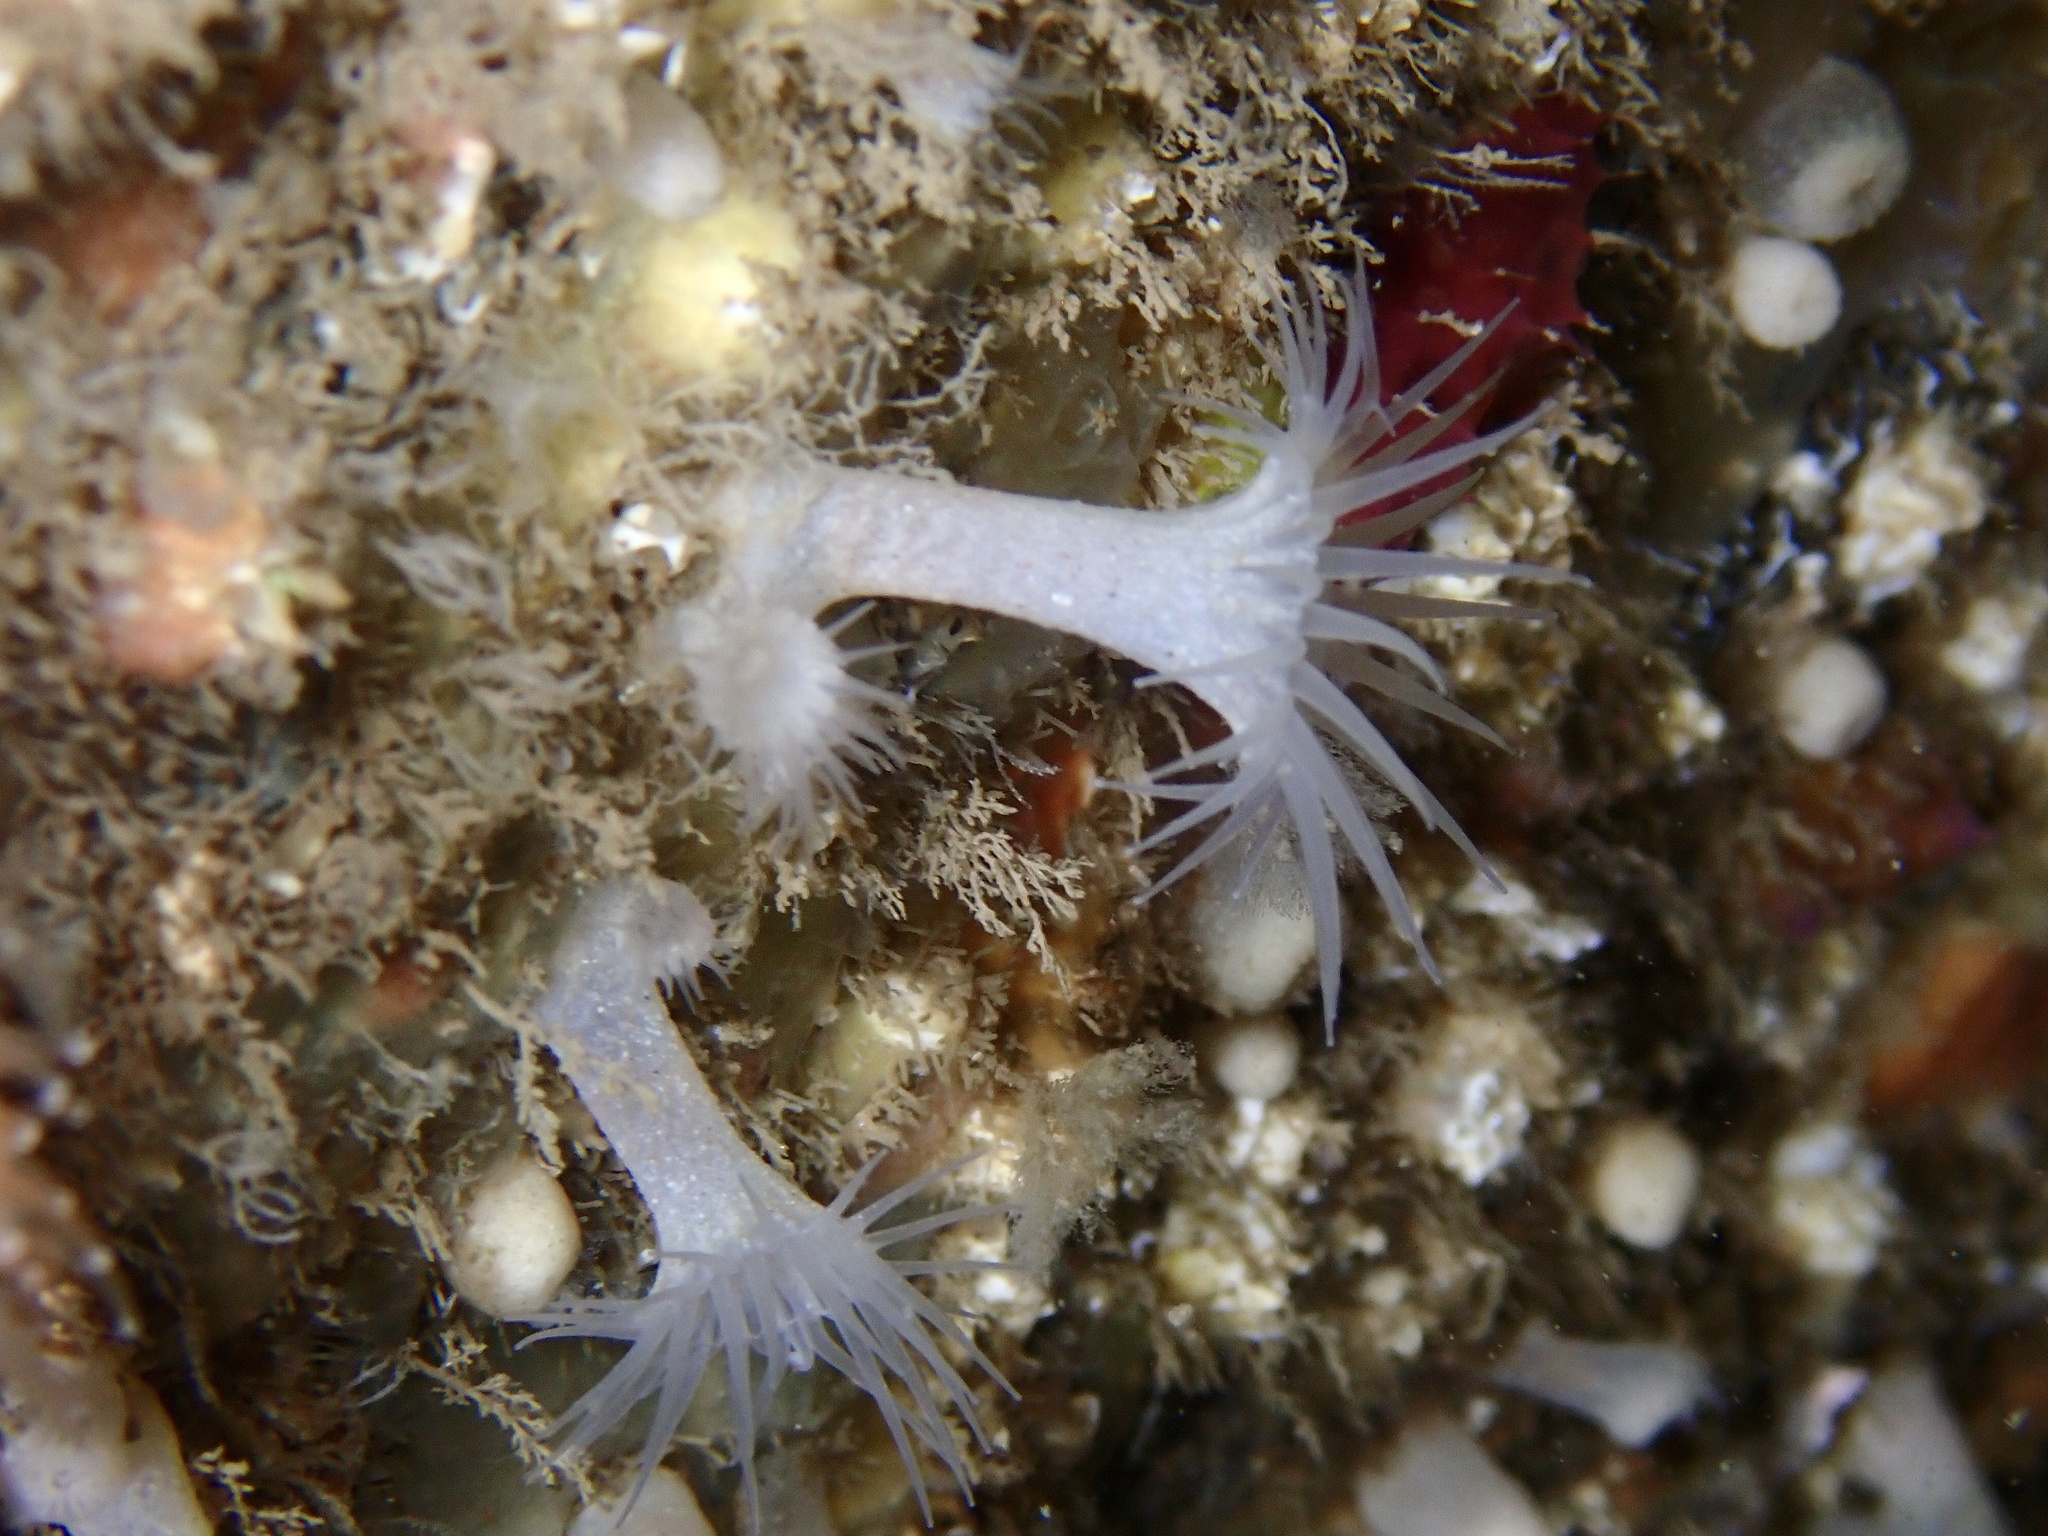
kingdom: Animalia
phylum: Cnidaria
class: Anthozoa
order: Zoantharia
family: Parazoanthidae
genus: Parazoanthus
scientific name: Parazoanthus anguicomus
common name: White cluster anemone
